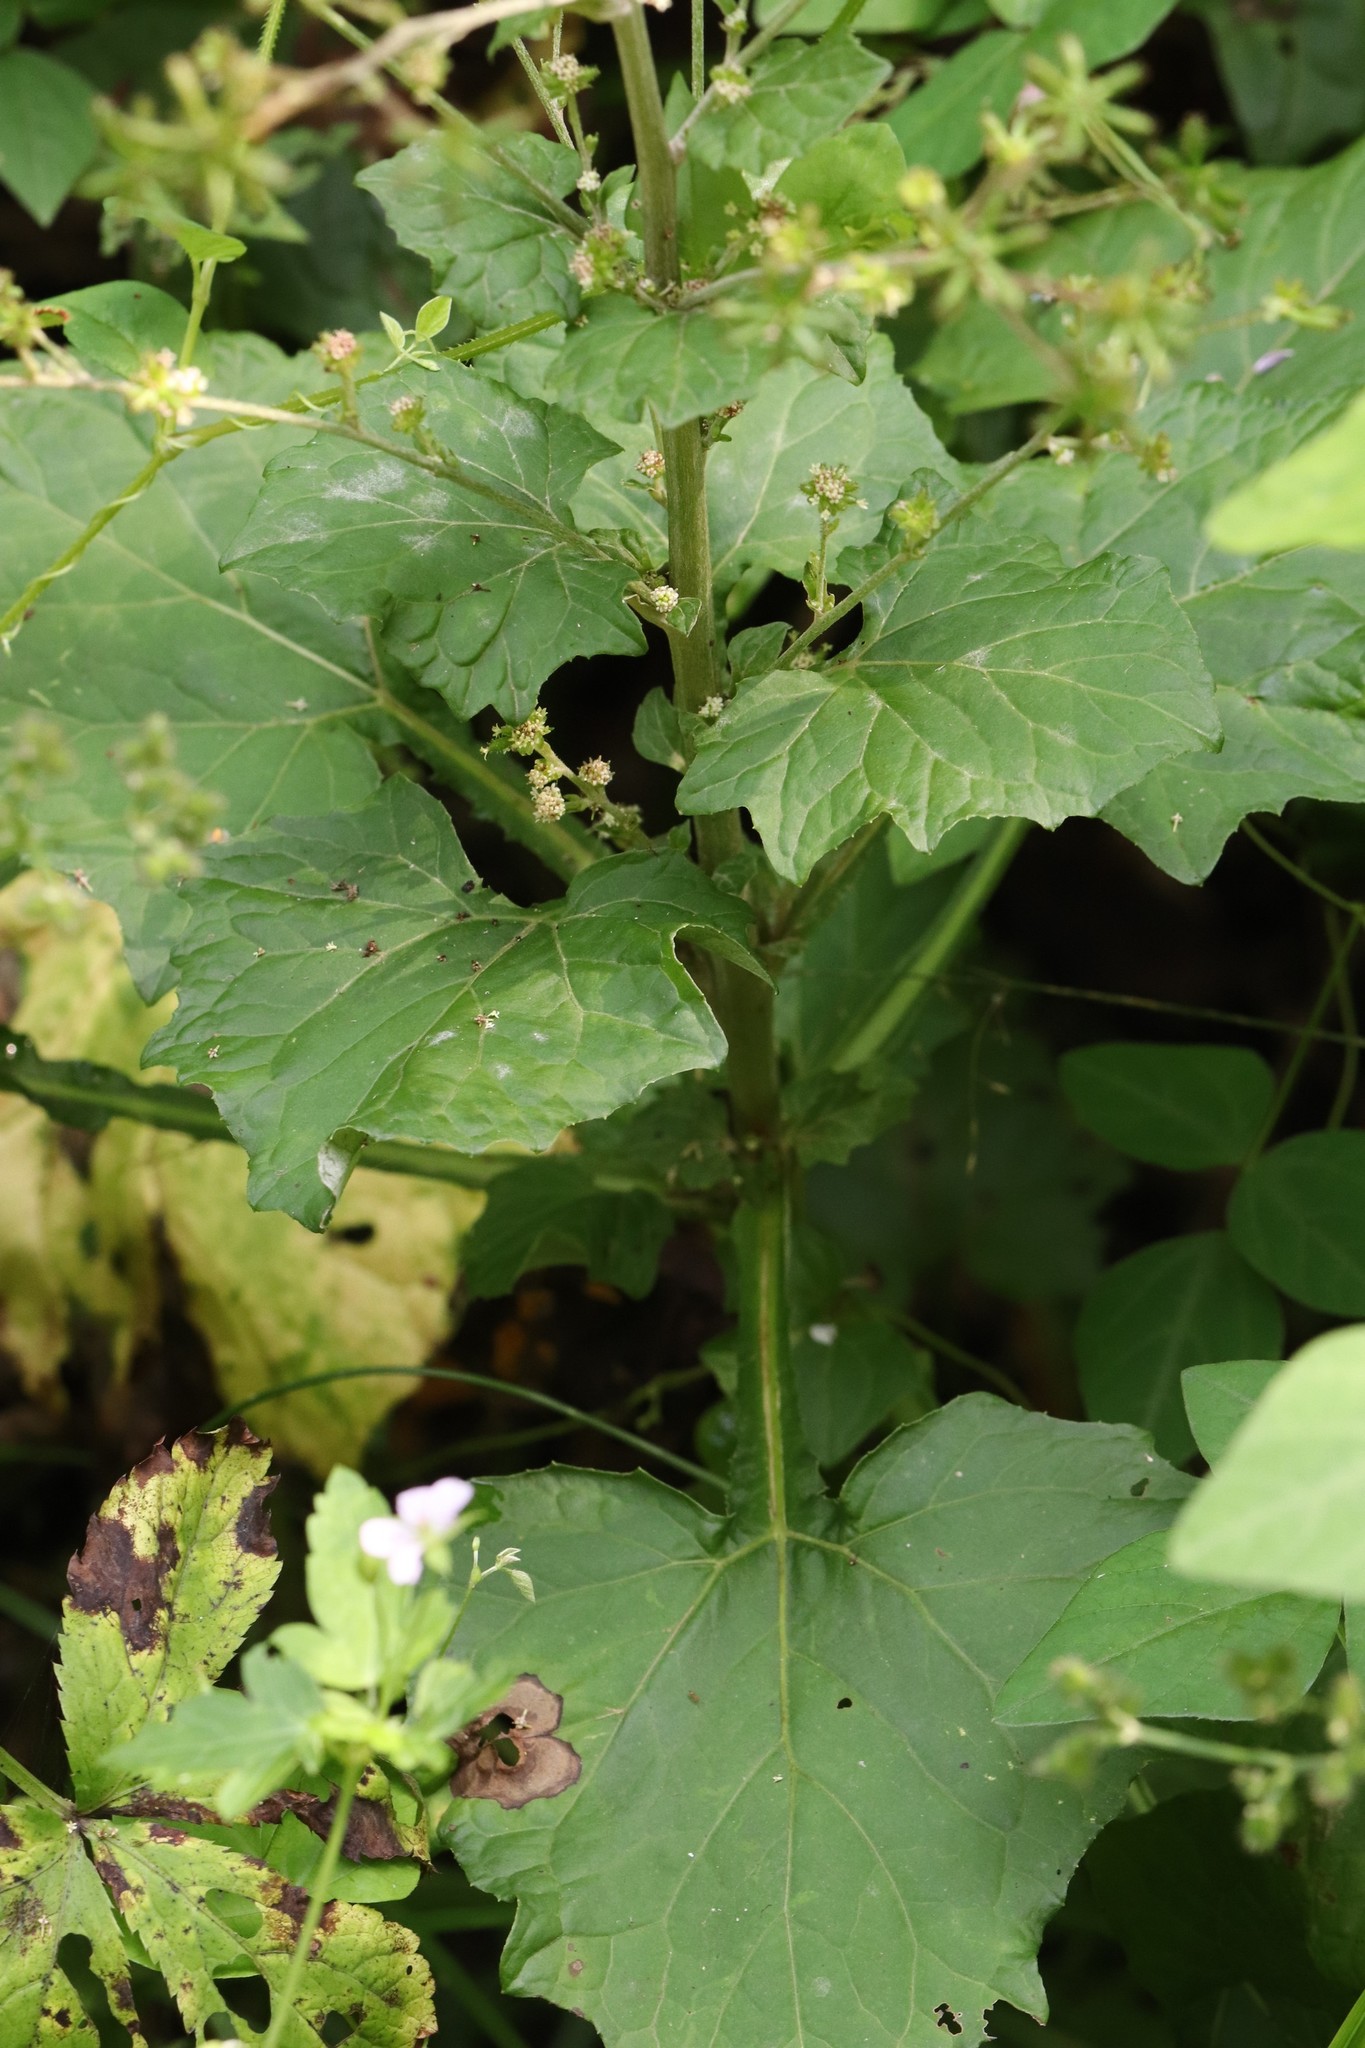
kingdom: Plantae
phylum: Tracheophyta
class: Magnoliopsida
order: Asterales
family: Asteraceae
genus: Adenocaulon
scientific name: Adenocaulon himalaicum
